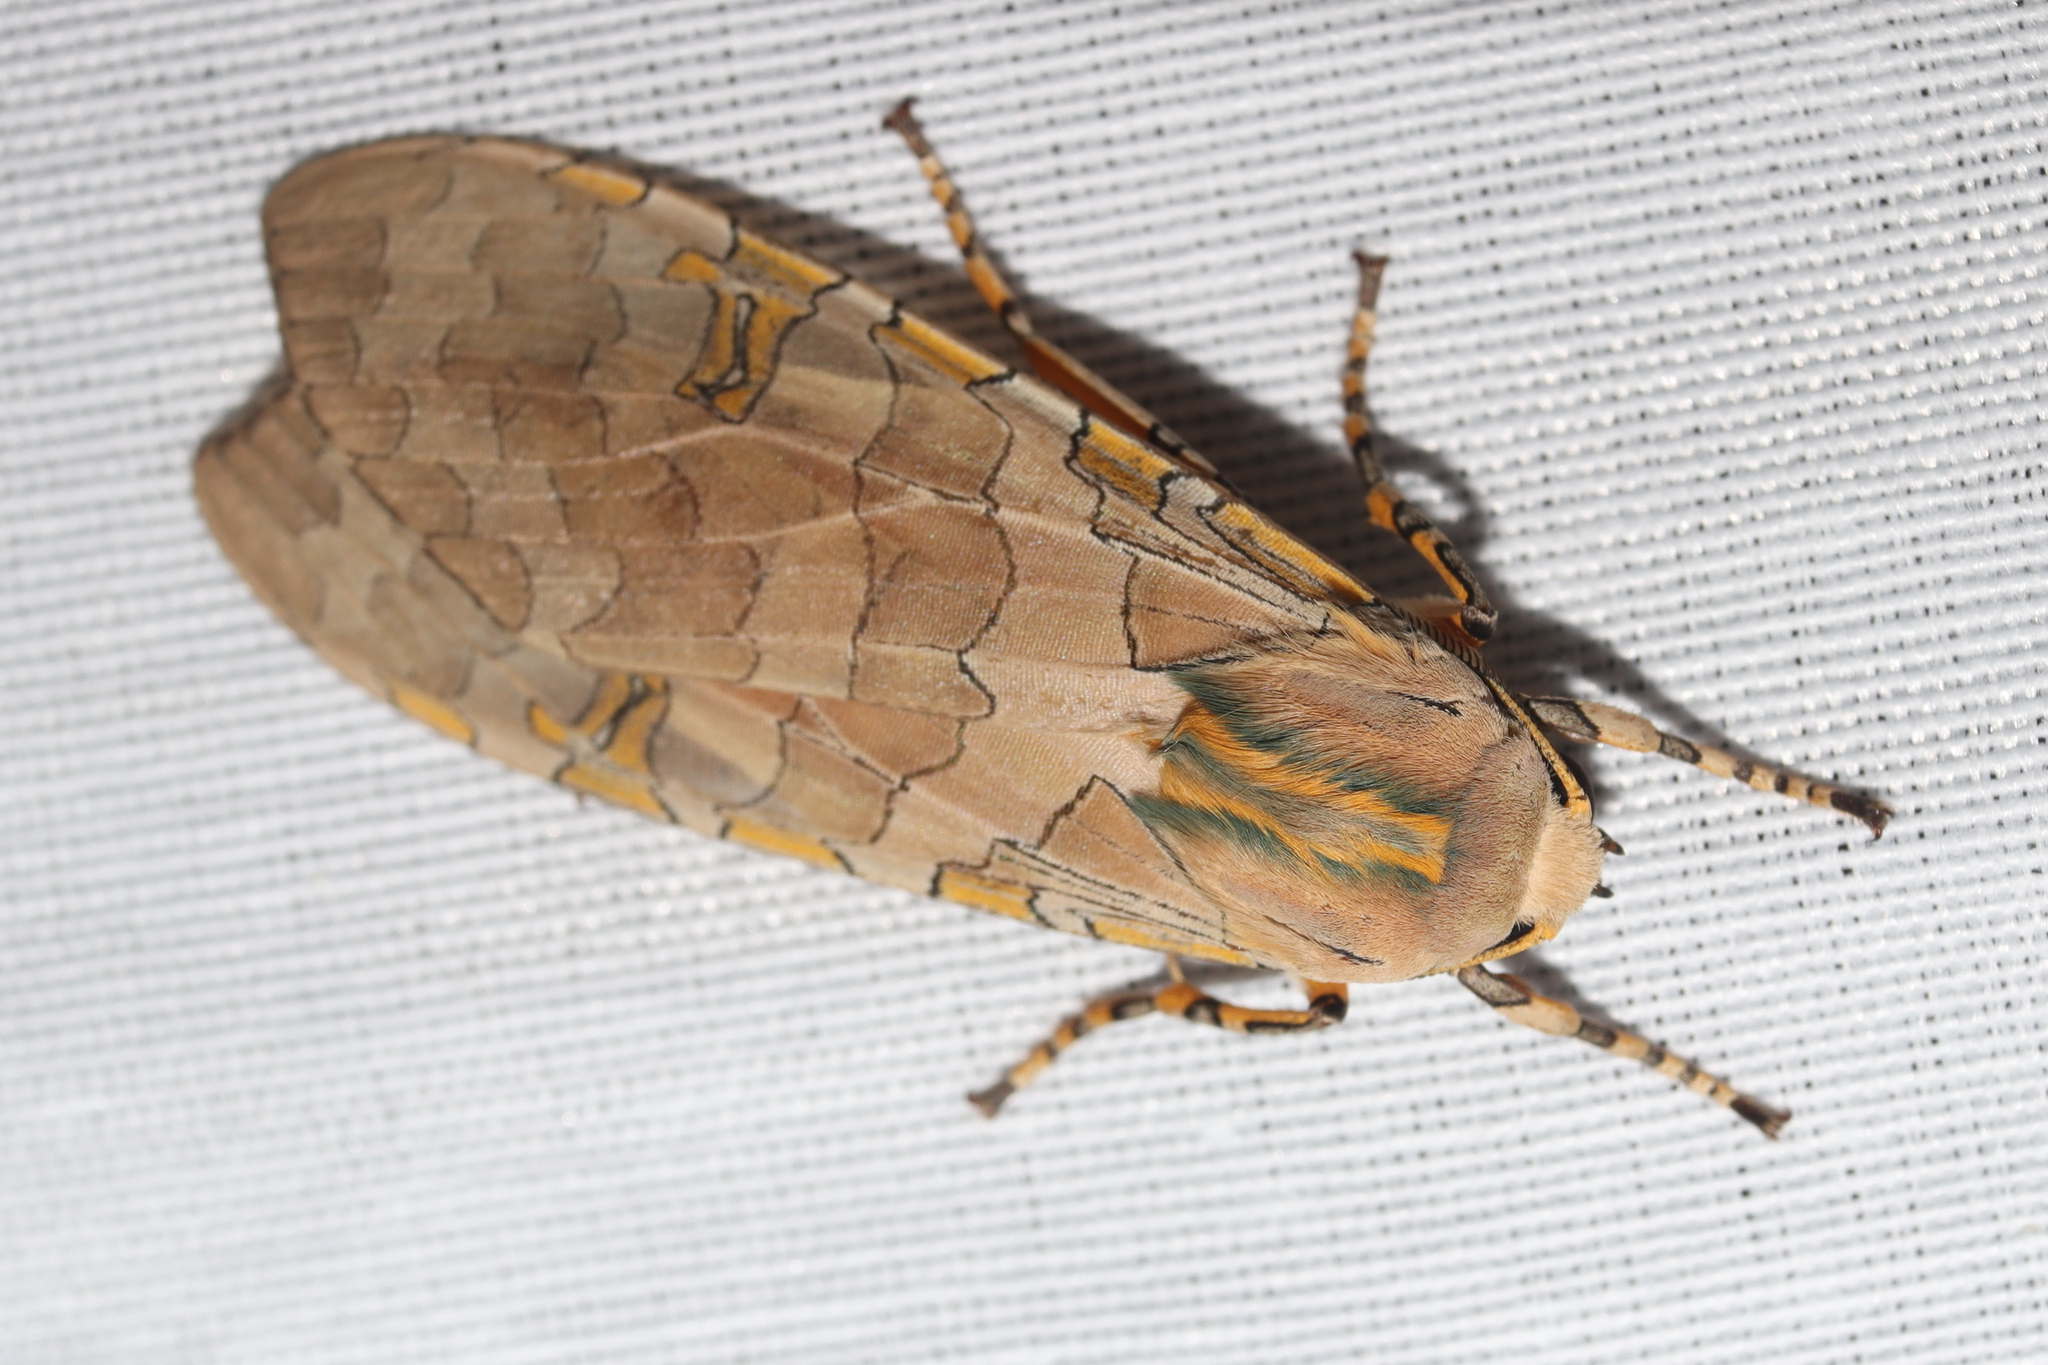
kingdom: Animalia
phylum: Arthropoda
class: Insecta
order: Lepidoptera
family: Erebidae
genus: Halysidota
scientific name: Halysidota schausi
